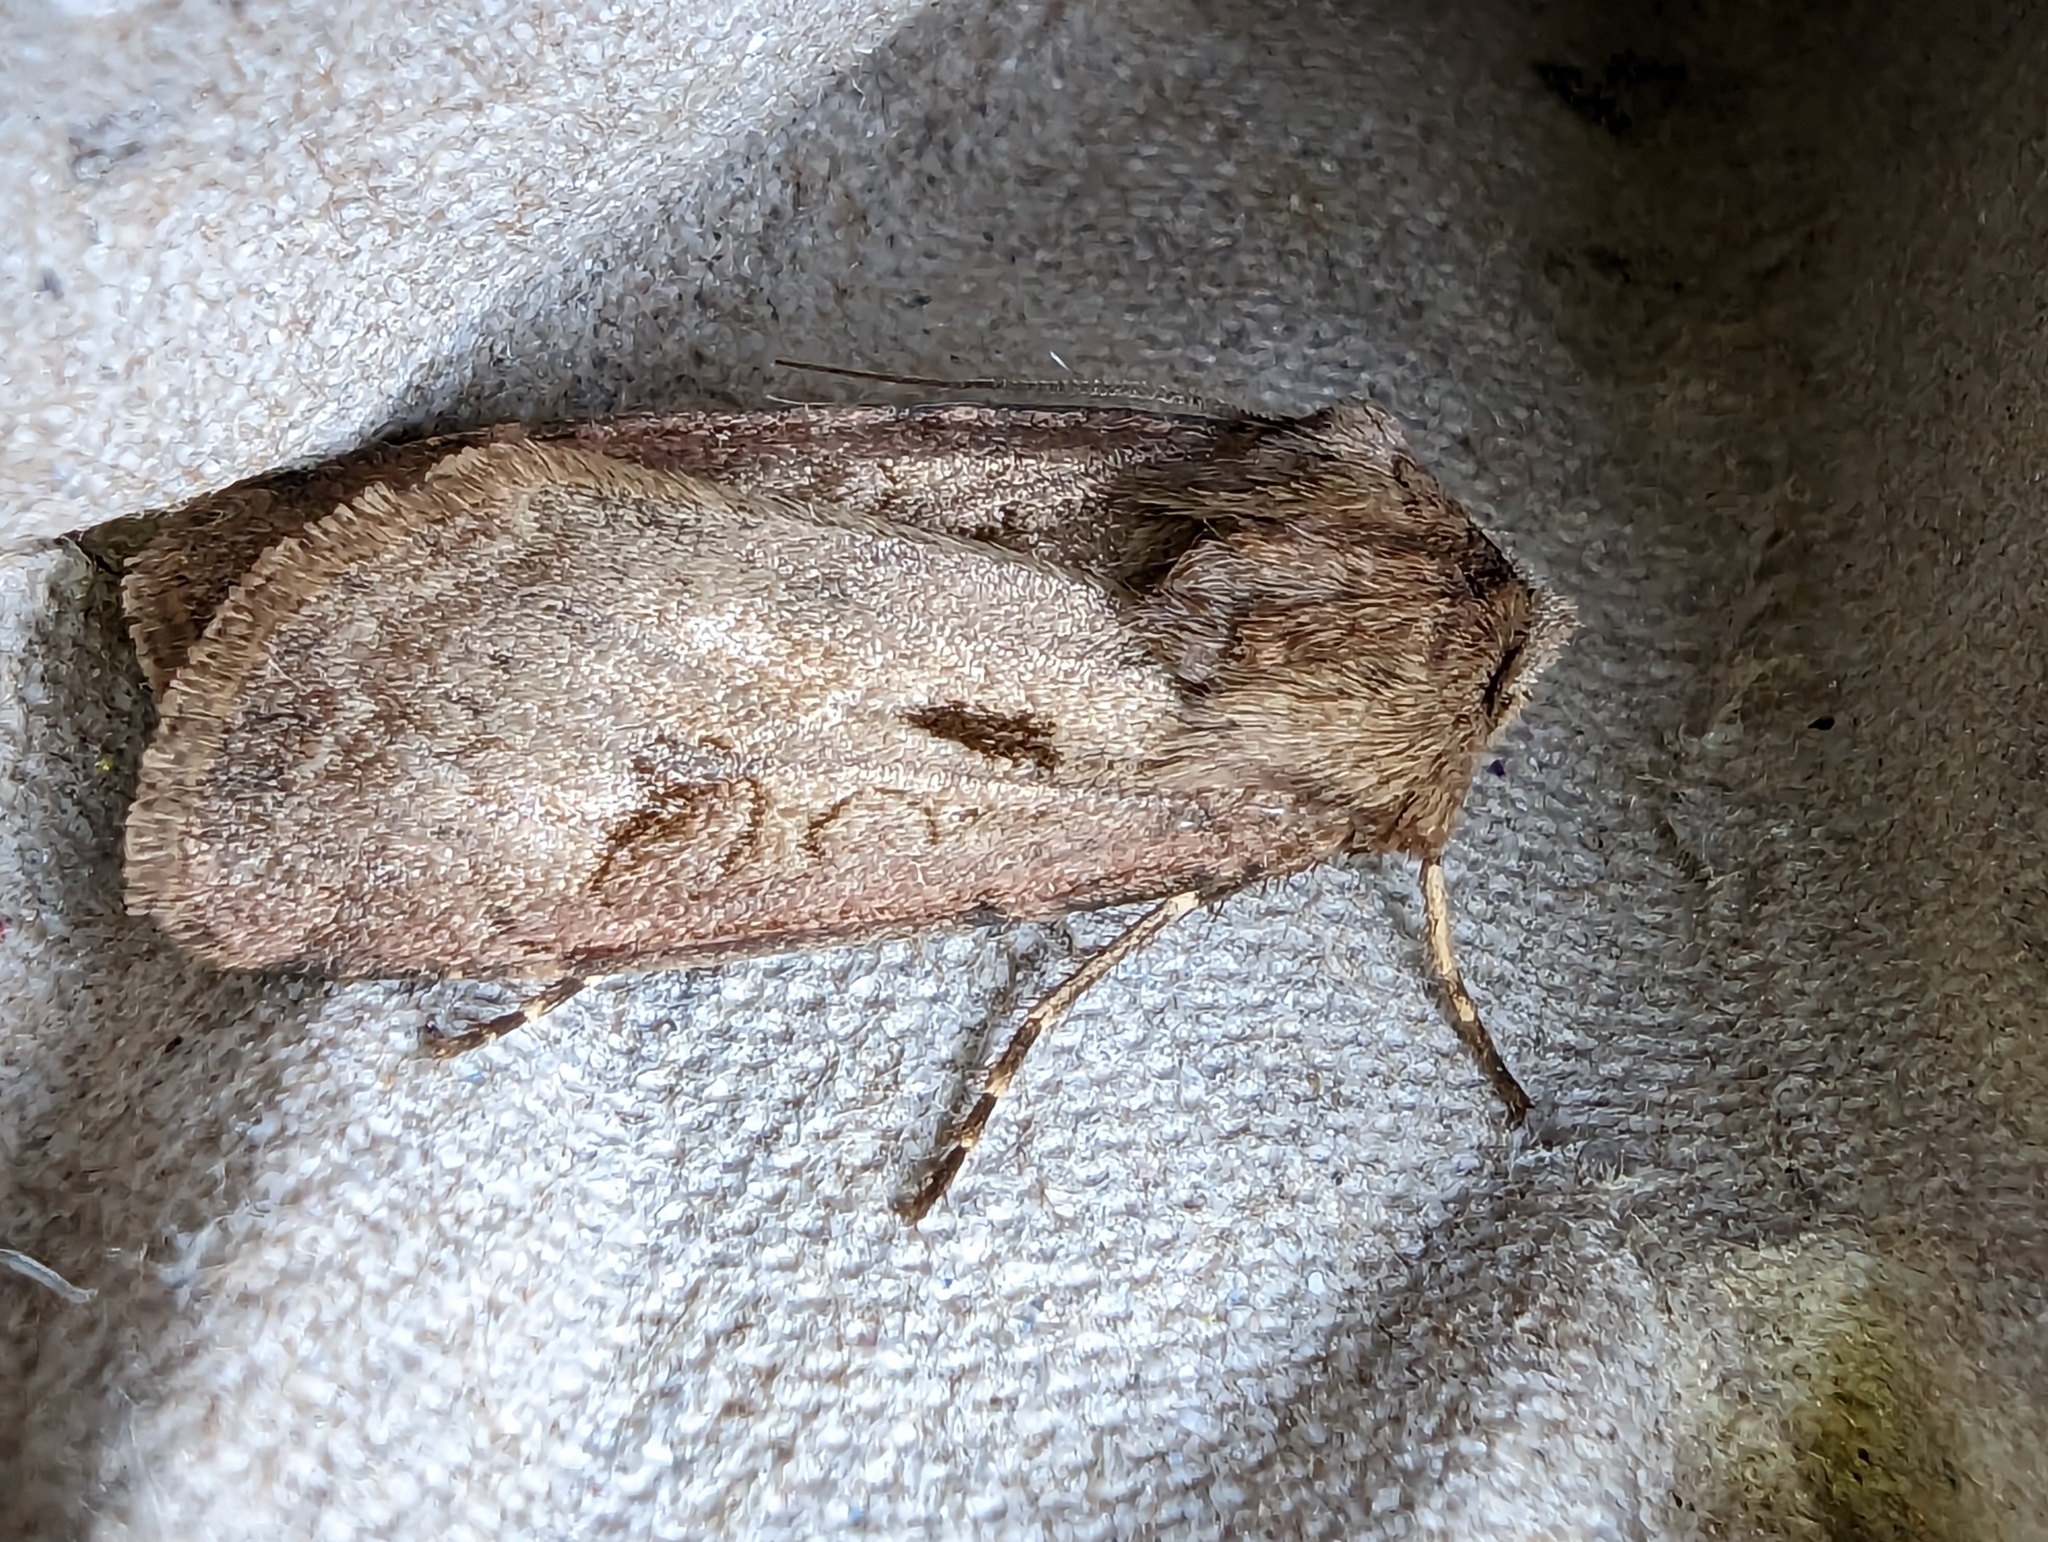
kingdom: Animalia
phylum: Arthropoda
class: Insecta
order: Lepidoptera
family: Noctuidae
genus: Agrotis
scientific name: Agrotis exclamationis
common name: Heart and dart
